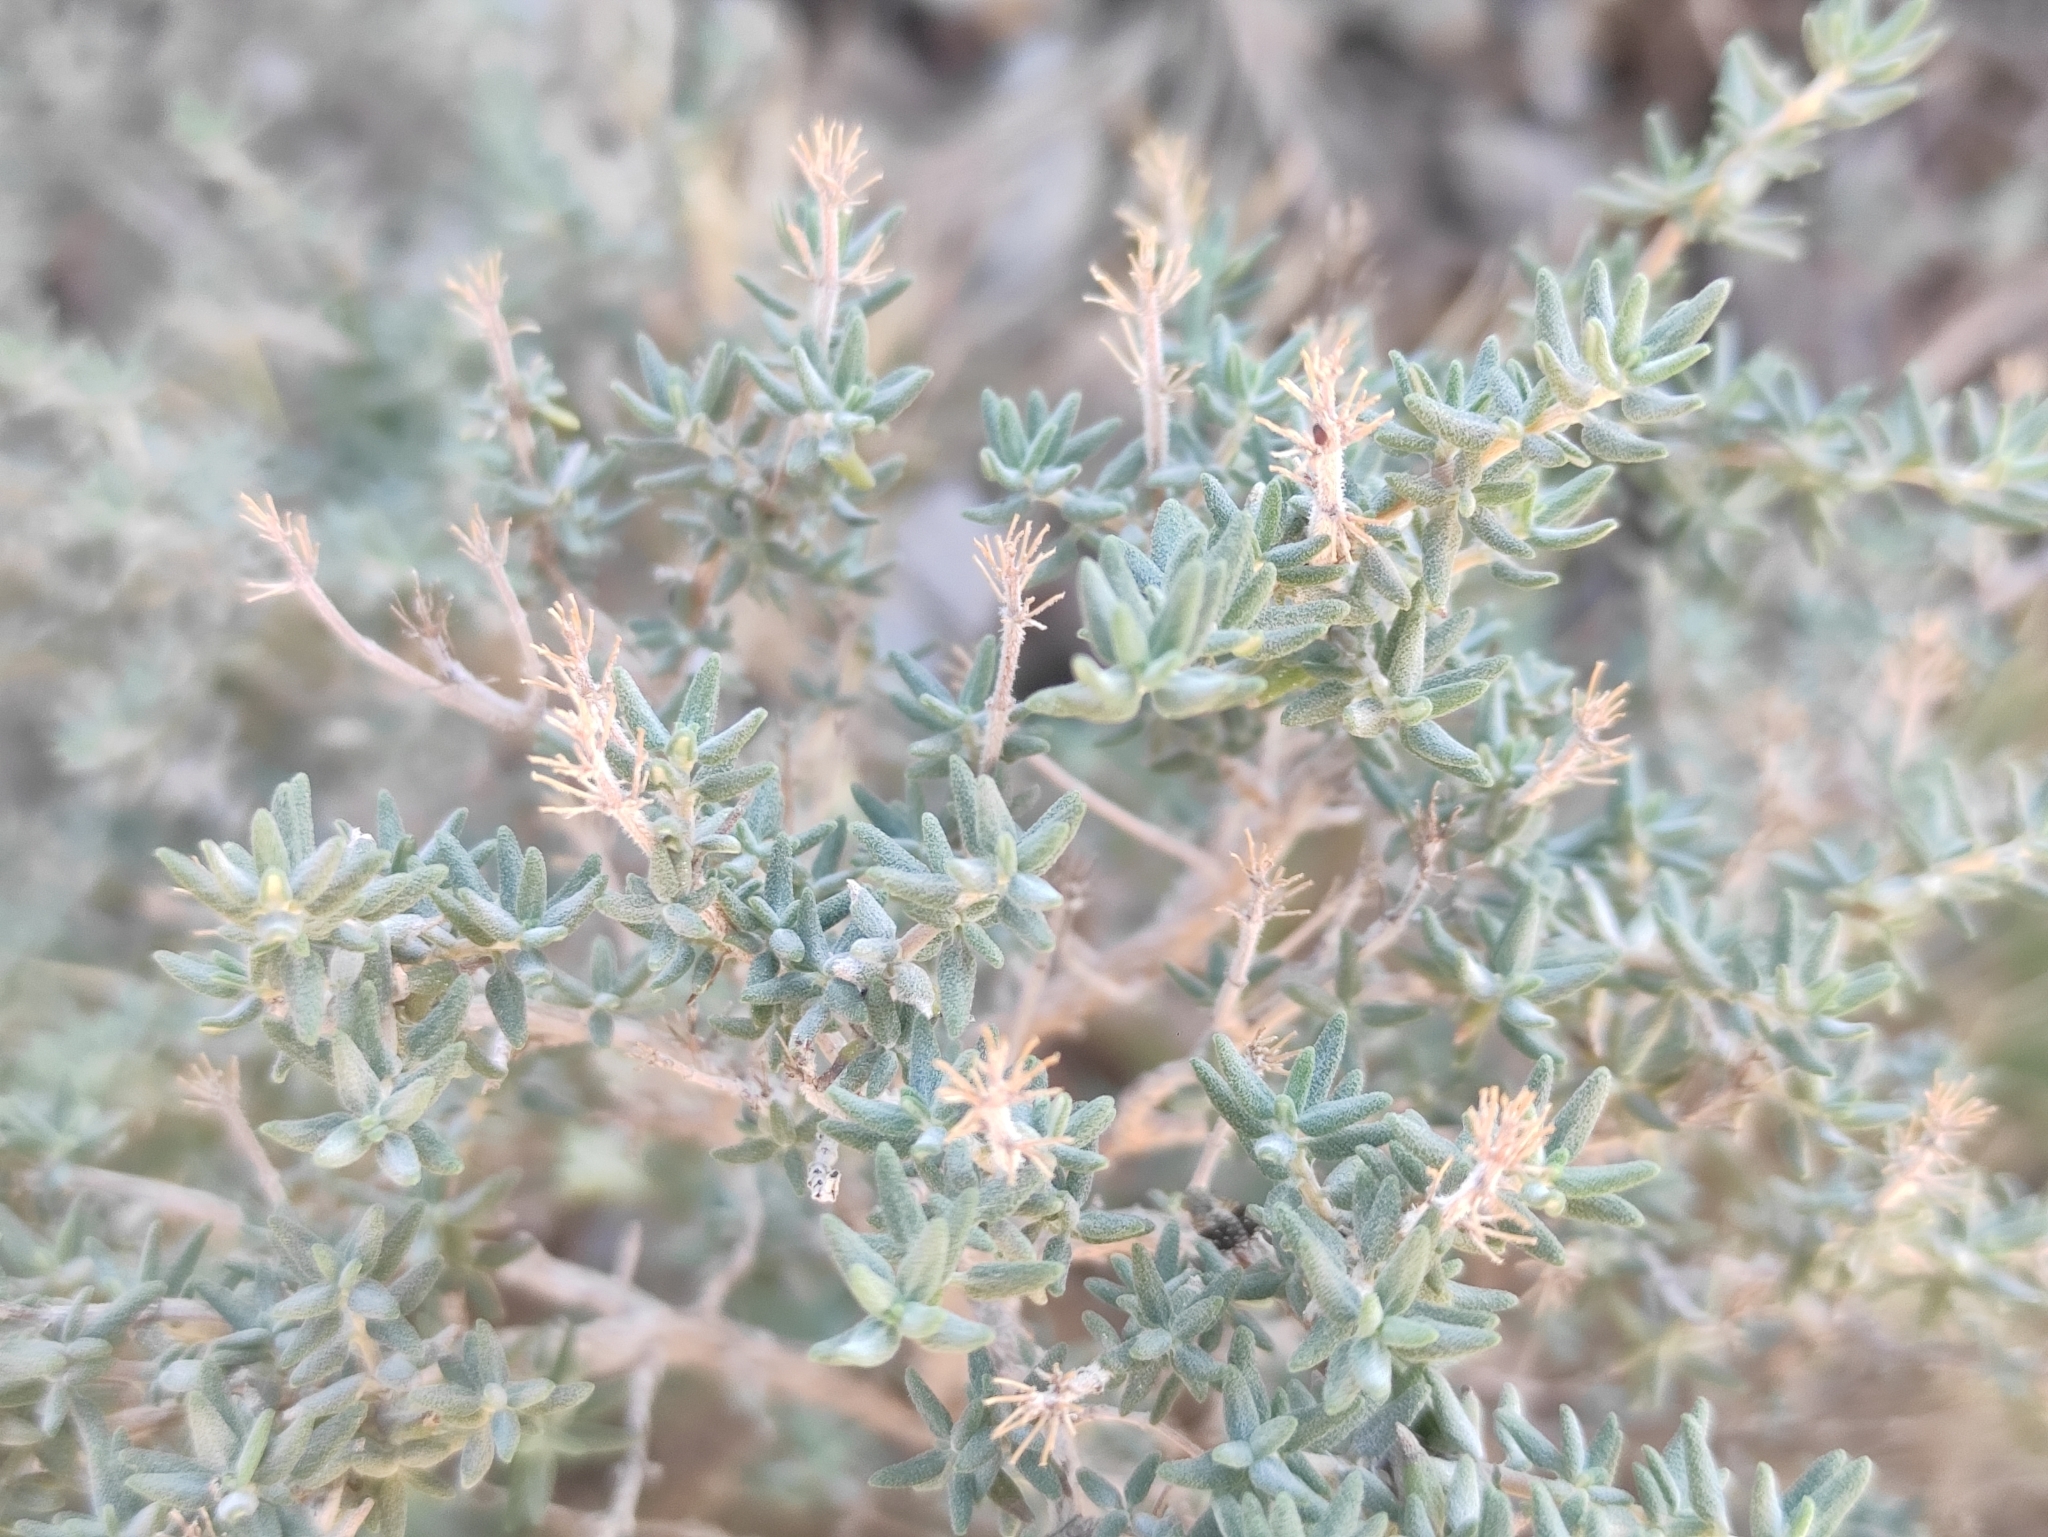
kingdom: Plantae
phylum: Tracheophyta
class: Magnoliopsida
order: Lamiales
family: Lamiaceae
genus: Thymus
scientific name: Thymus vulgaris
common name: Garden thyme
